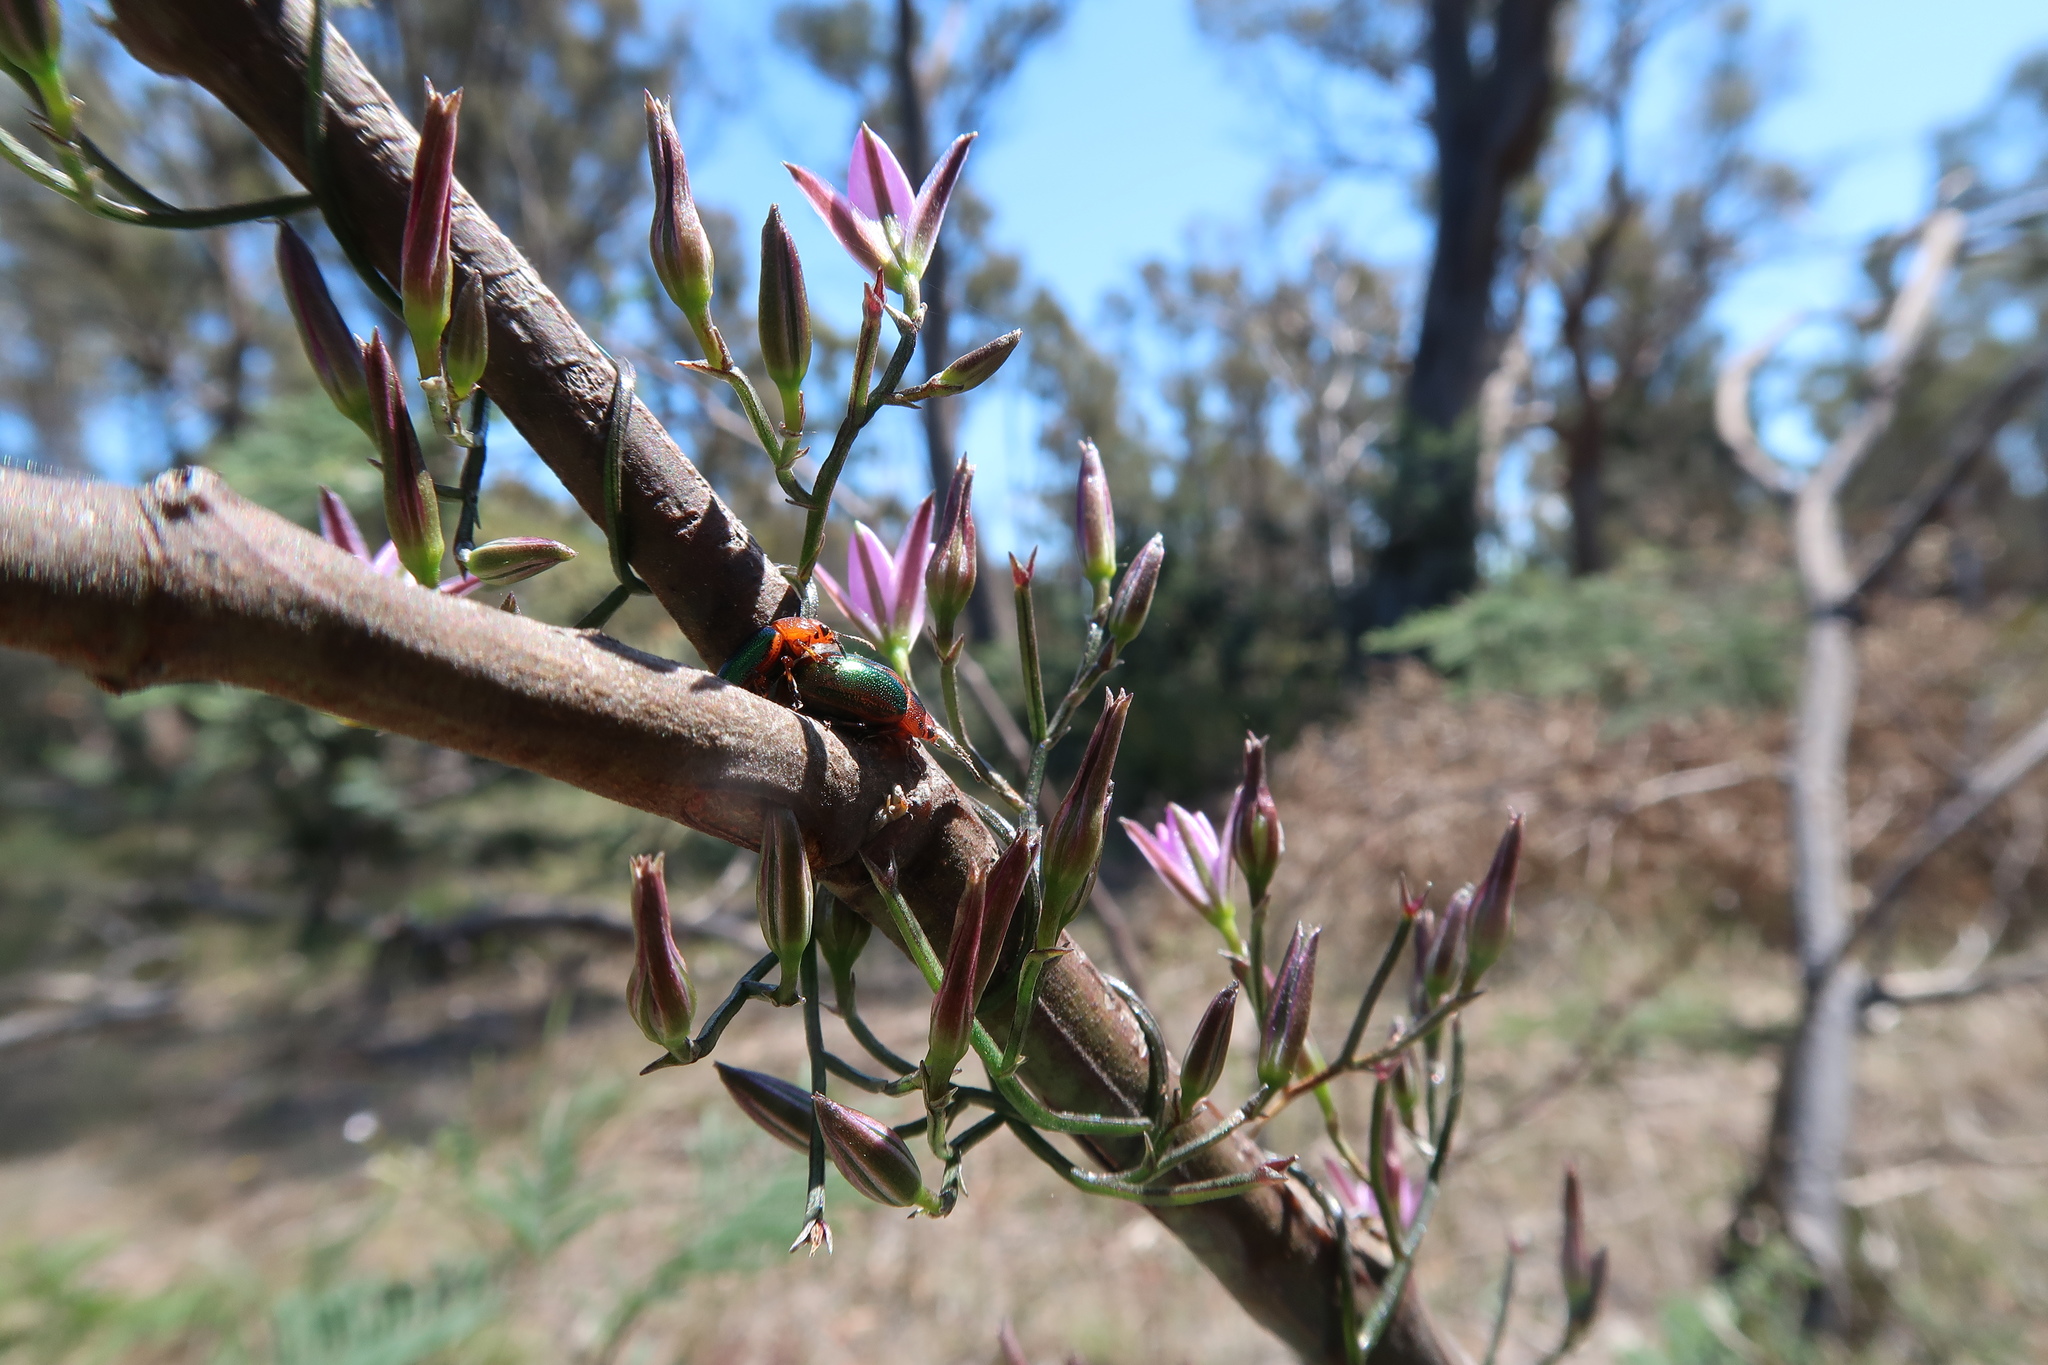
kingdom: Animalia
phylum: Arthropoda
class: Insecta
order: Coleoptera
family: Chrysomelidae
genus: Calomela
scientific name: Calomela
